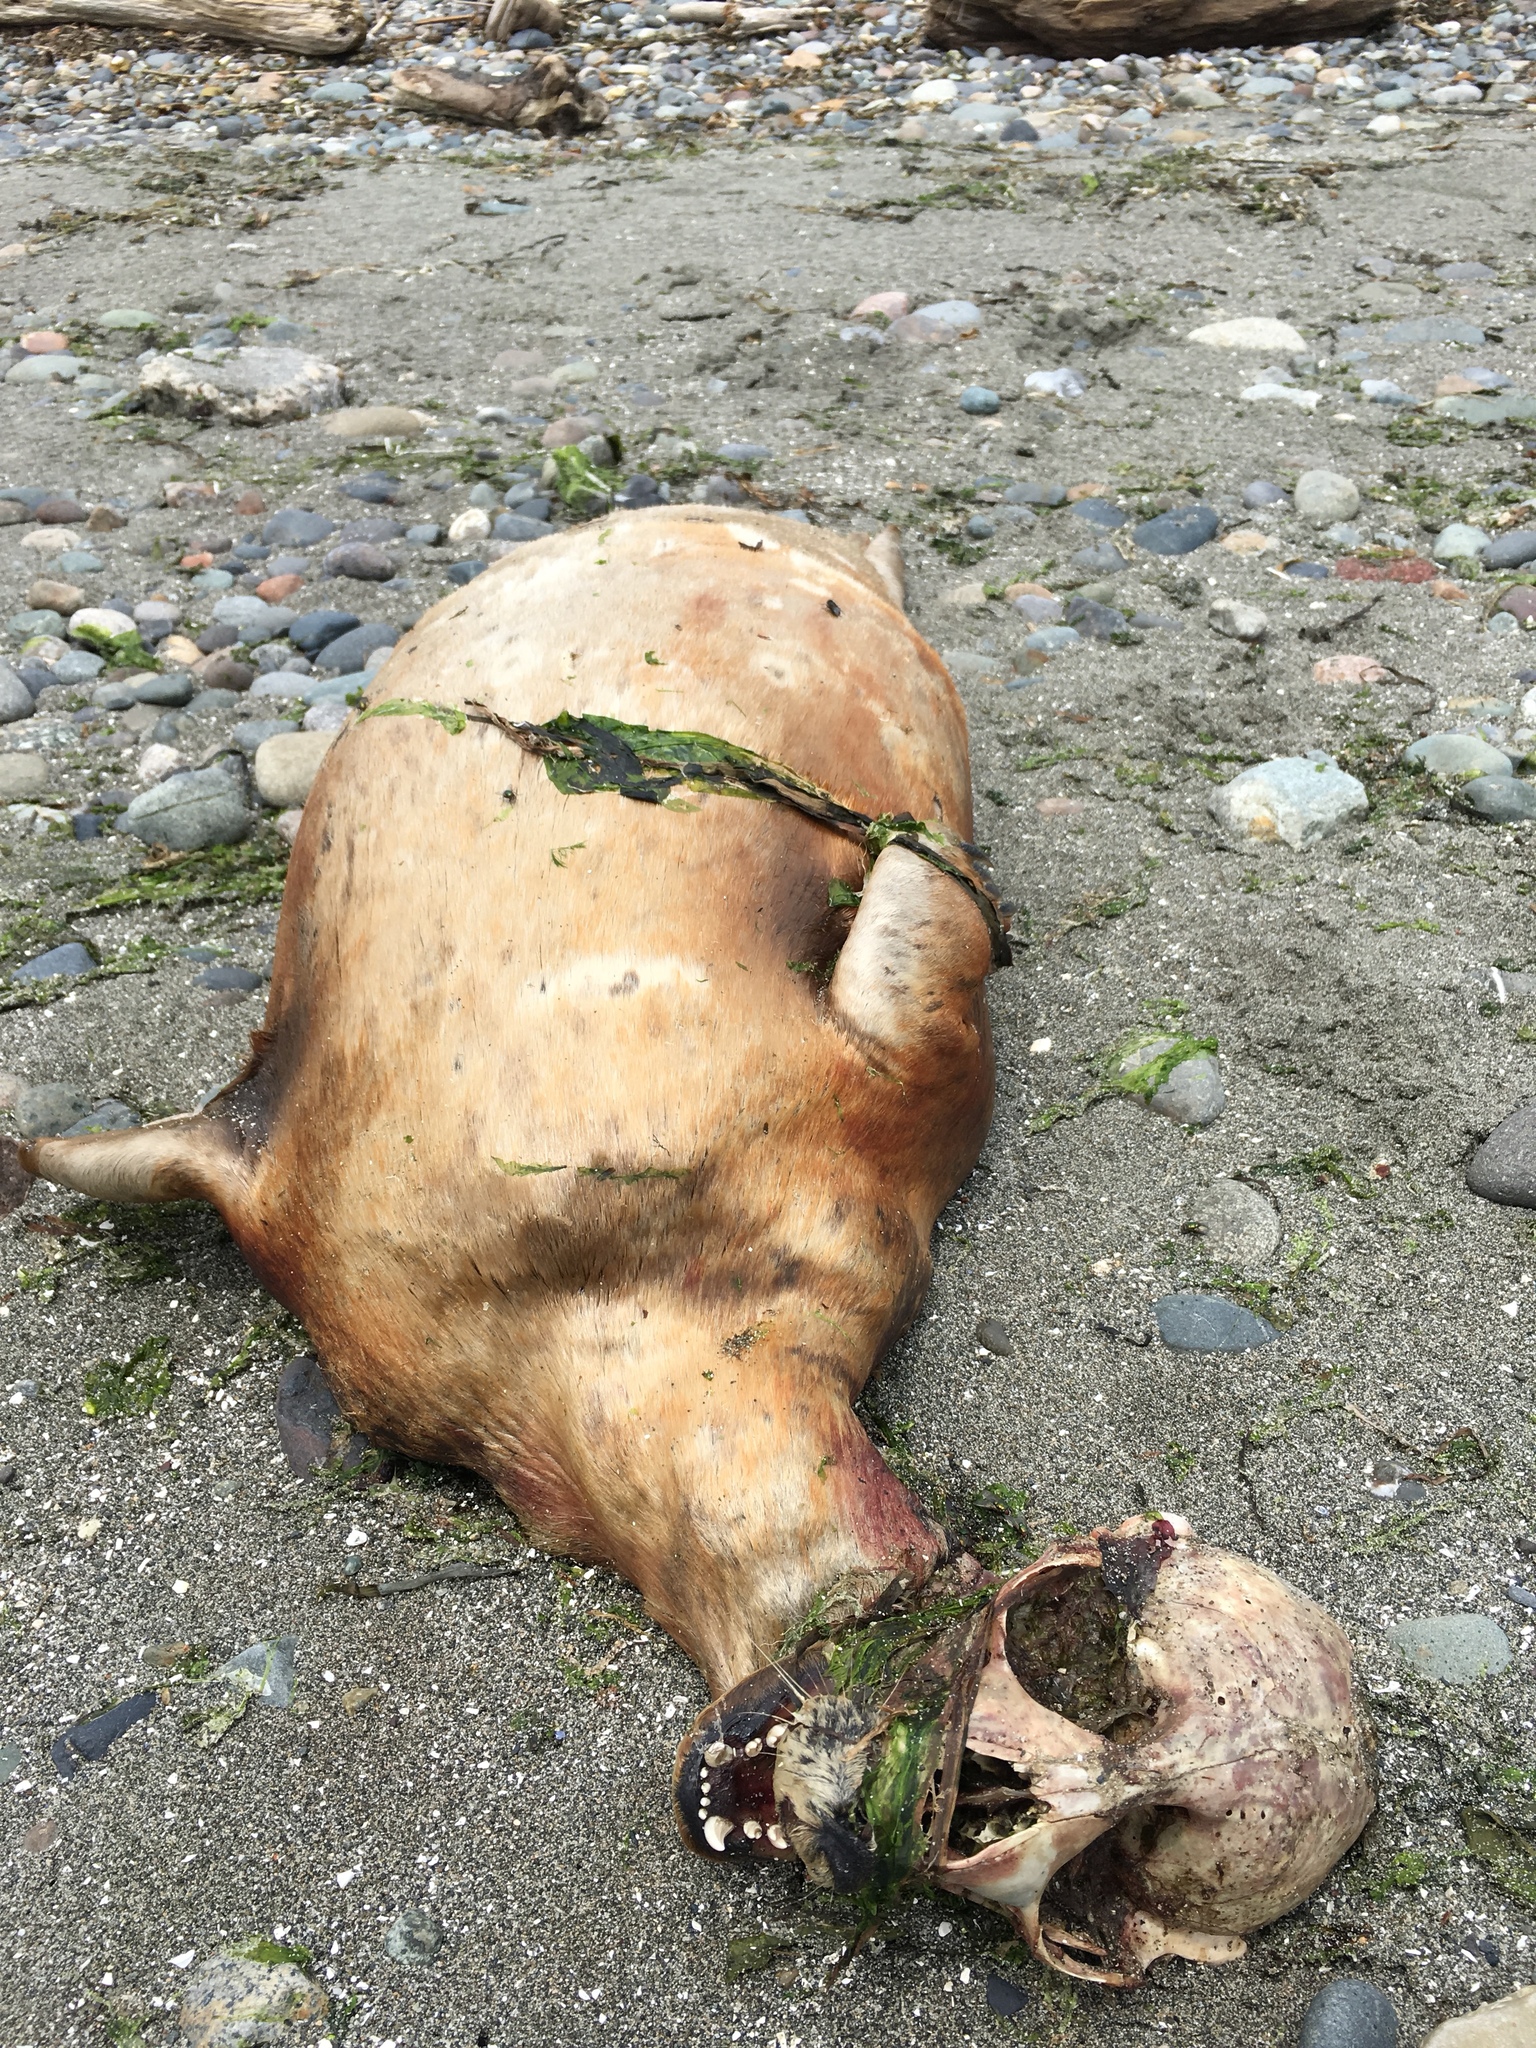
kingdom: Animalia
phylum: Chordata
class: Mammalia
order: Carnivora
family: Phocidae
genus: Phoca
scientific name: Phoca vitulina
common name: Harbor seal
